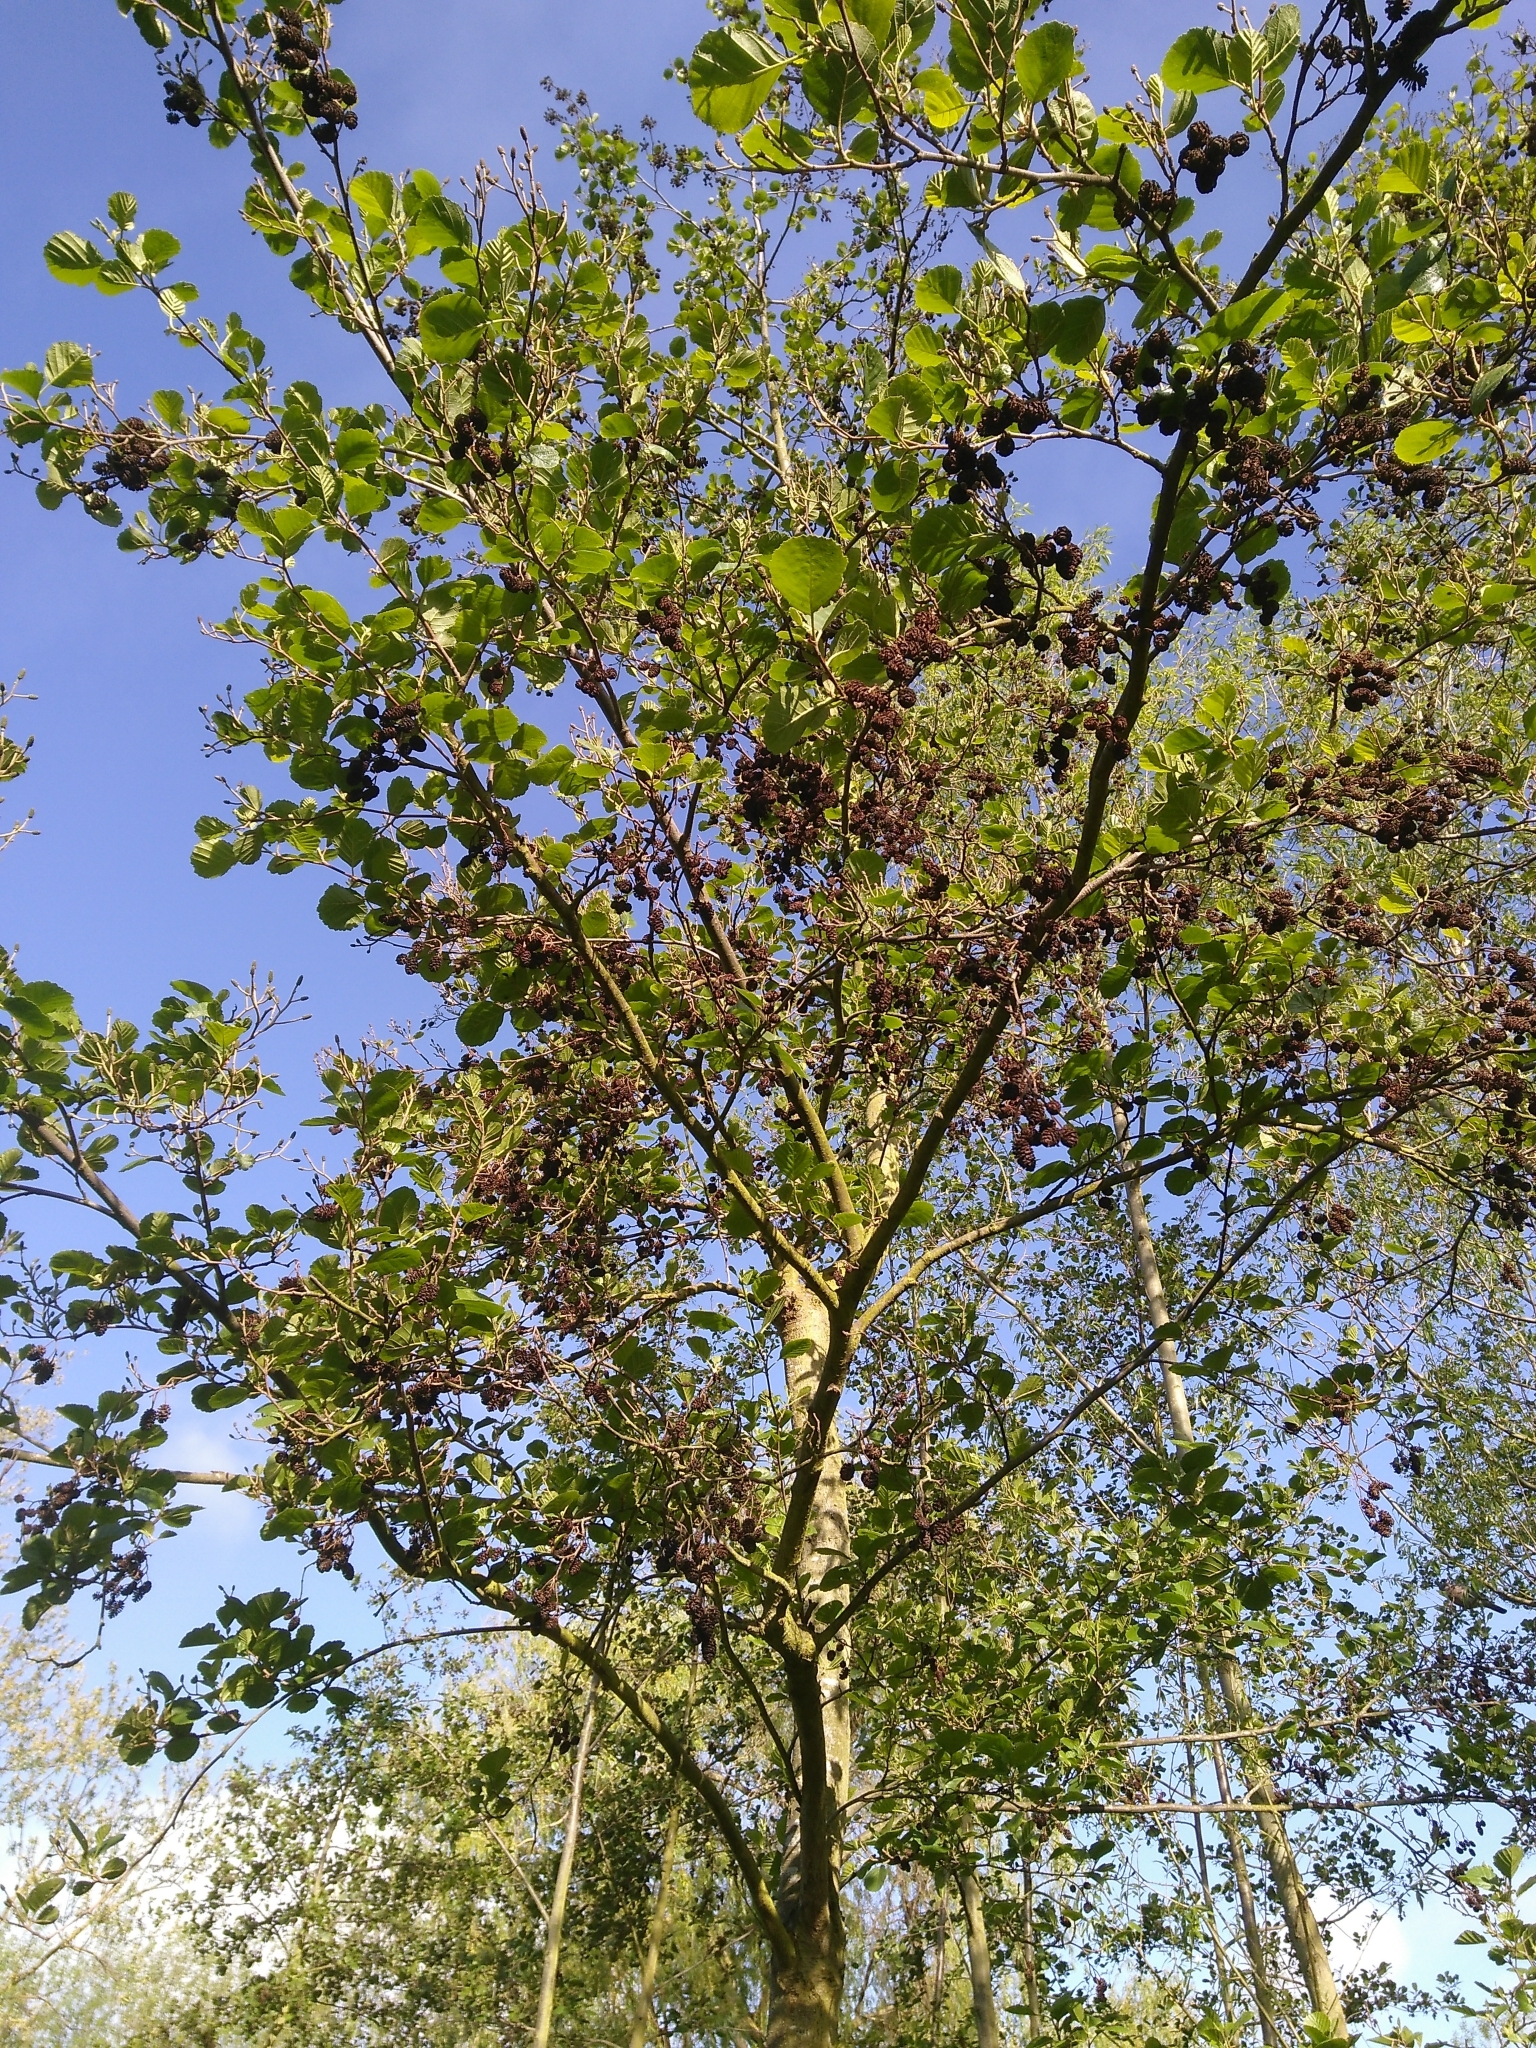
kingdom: Plantae
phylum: Tracheophyta
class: Magnoliopsida
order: Fagales
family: Betulaceae
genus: Alnus
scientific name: Alnus glutinosa
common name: Black alder
